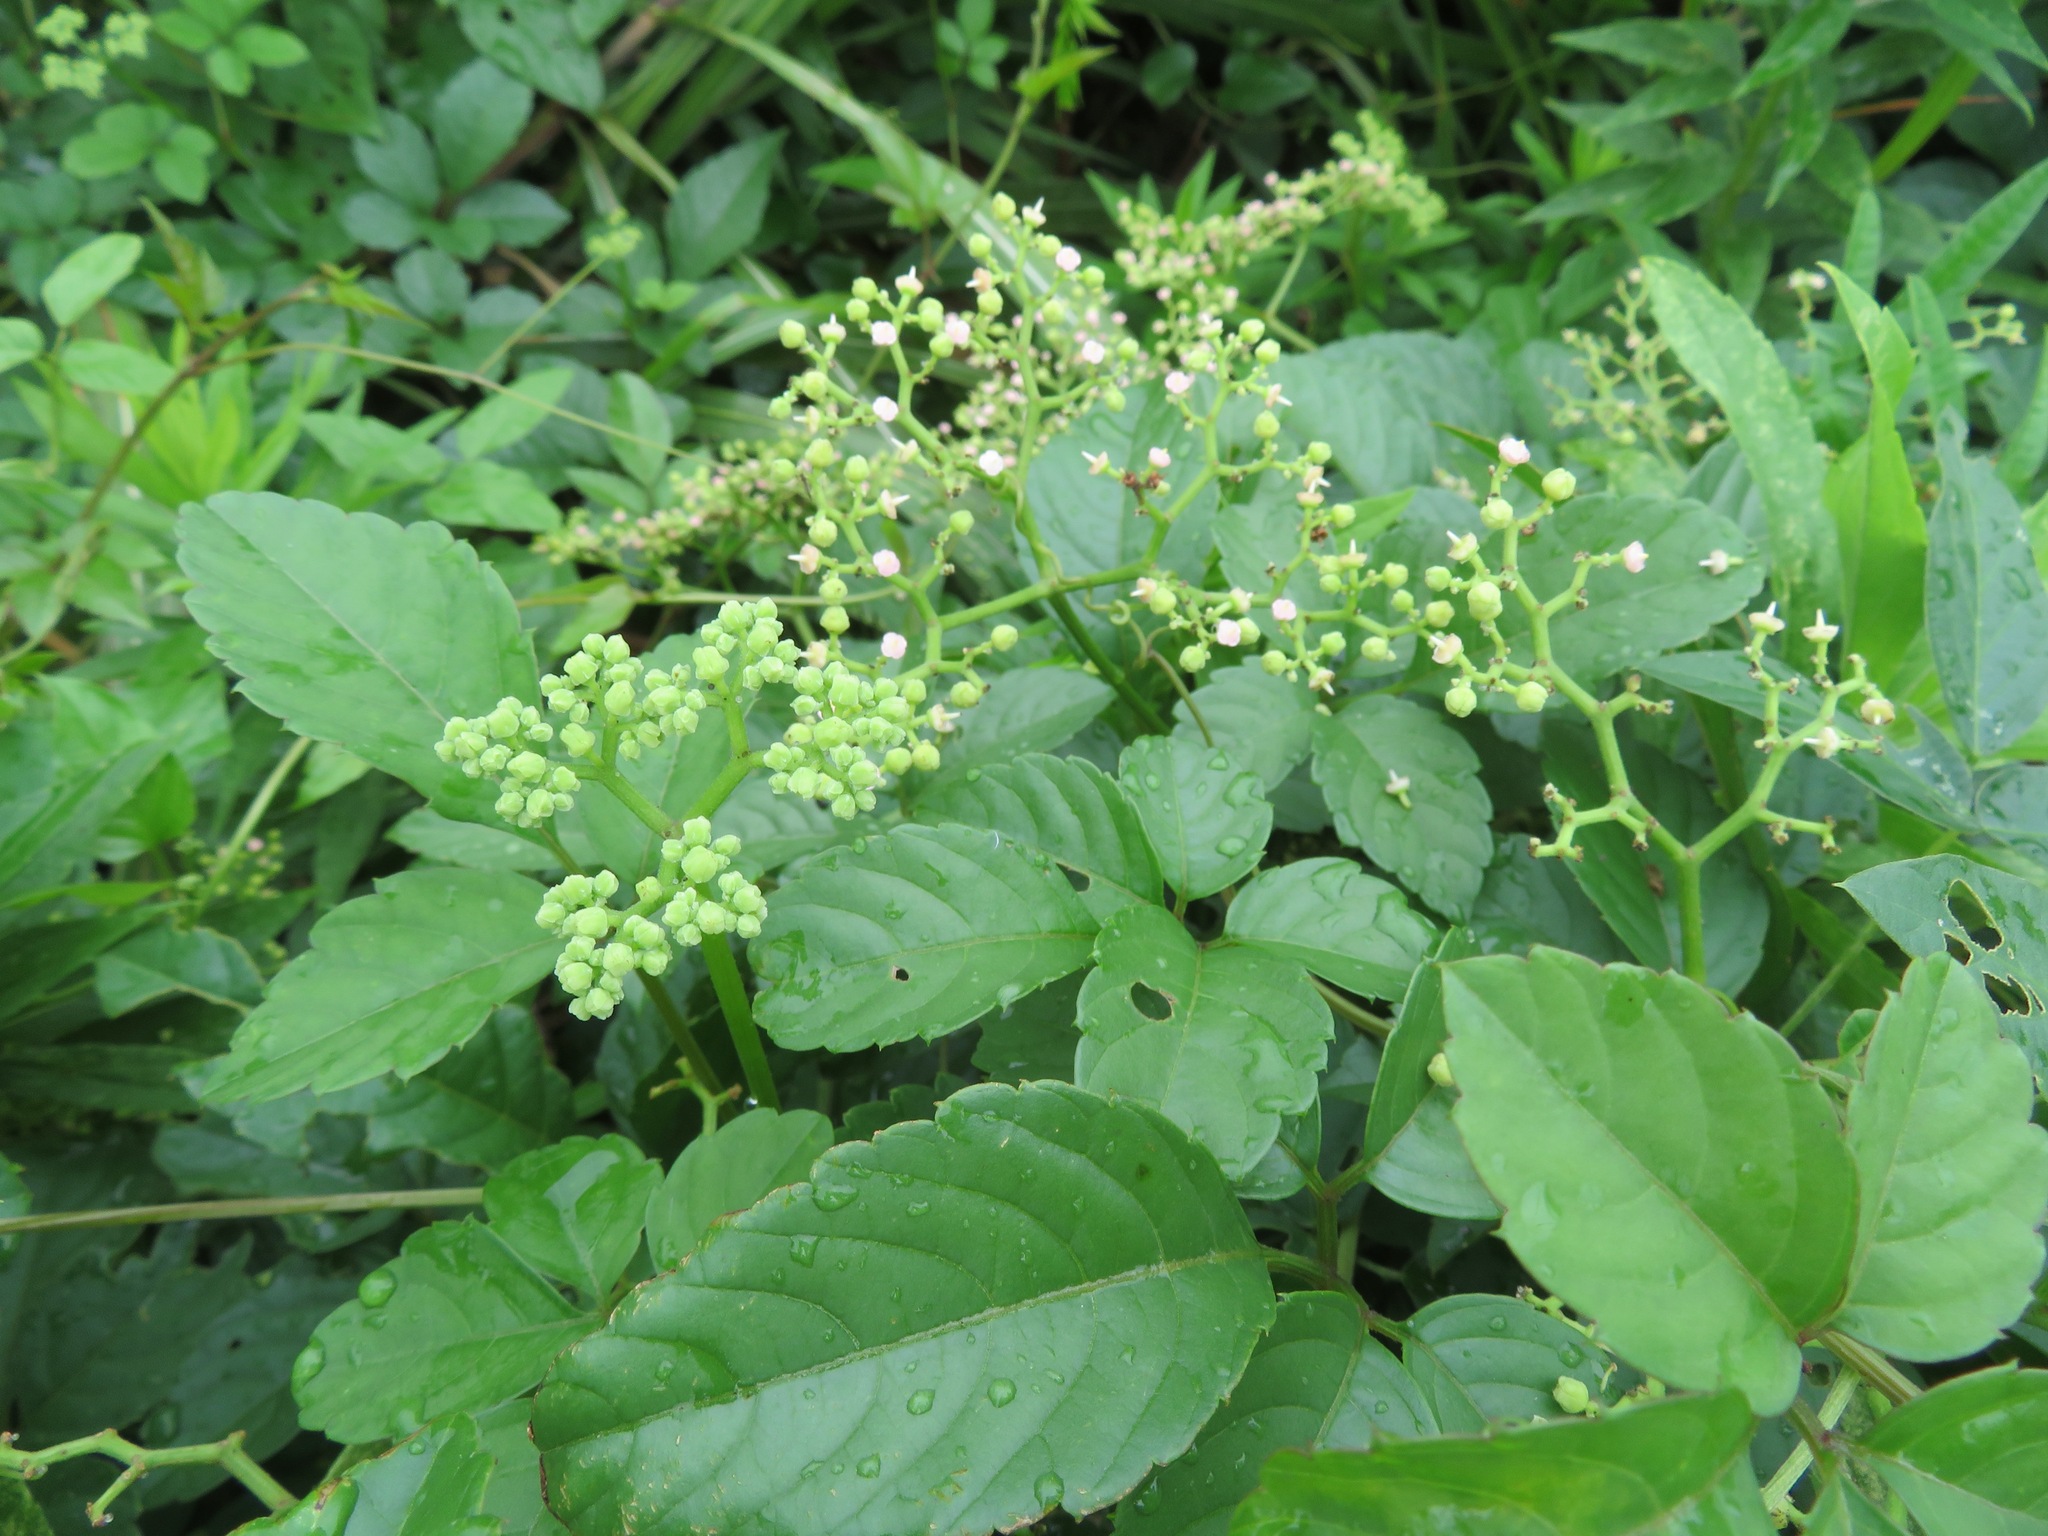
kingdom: Plantae
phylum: Tracheophyta
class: Magnoliopsida
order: Vitales
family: Vitaceae
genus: Causonis
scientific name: Causonis japonica
